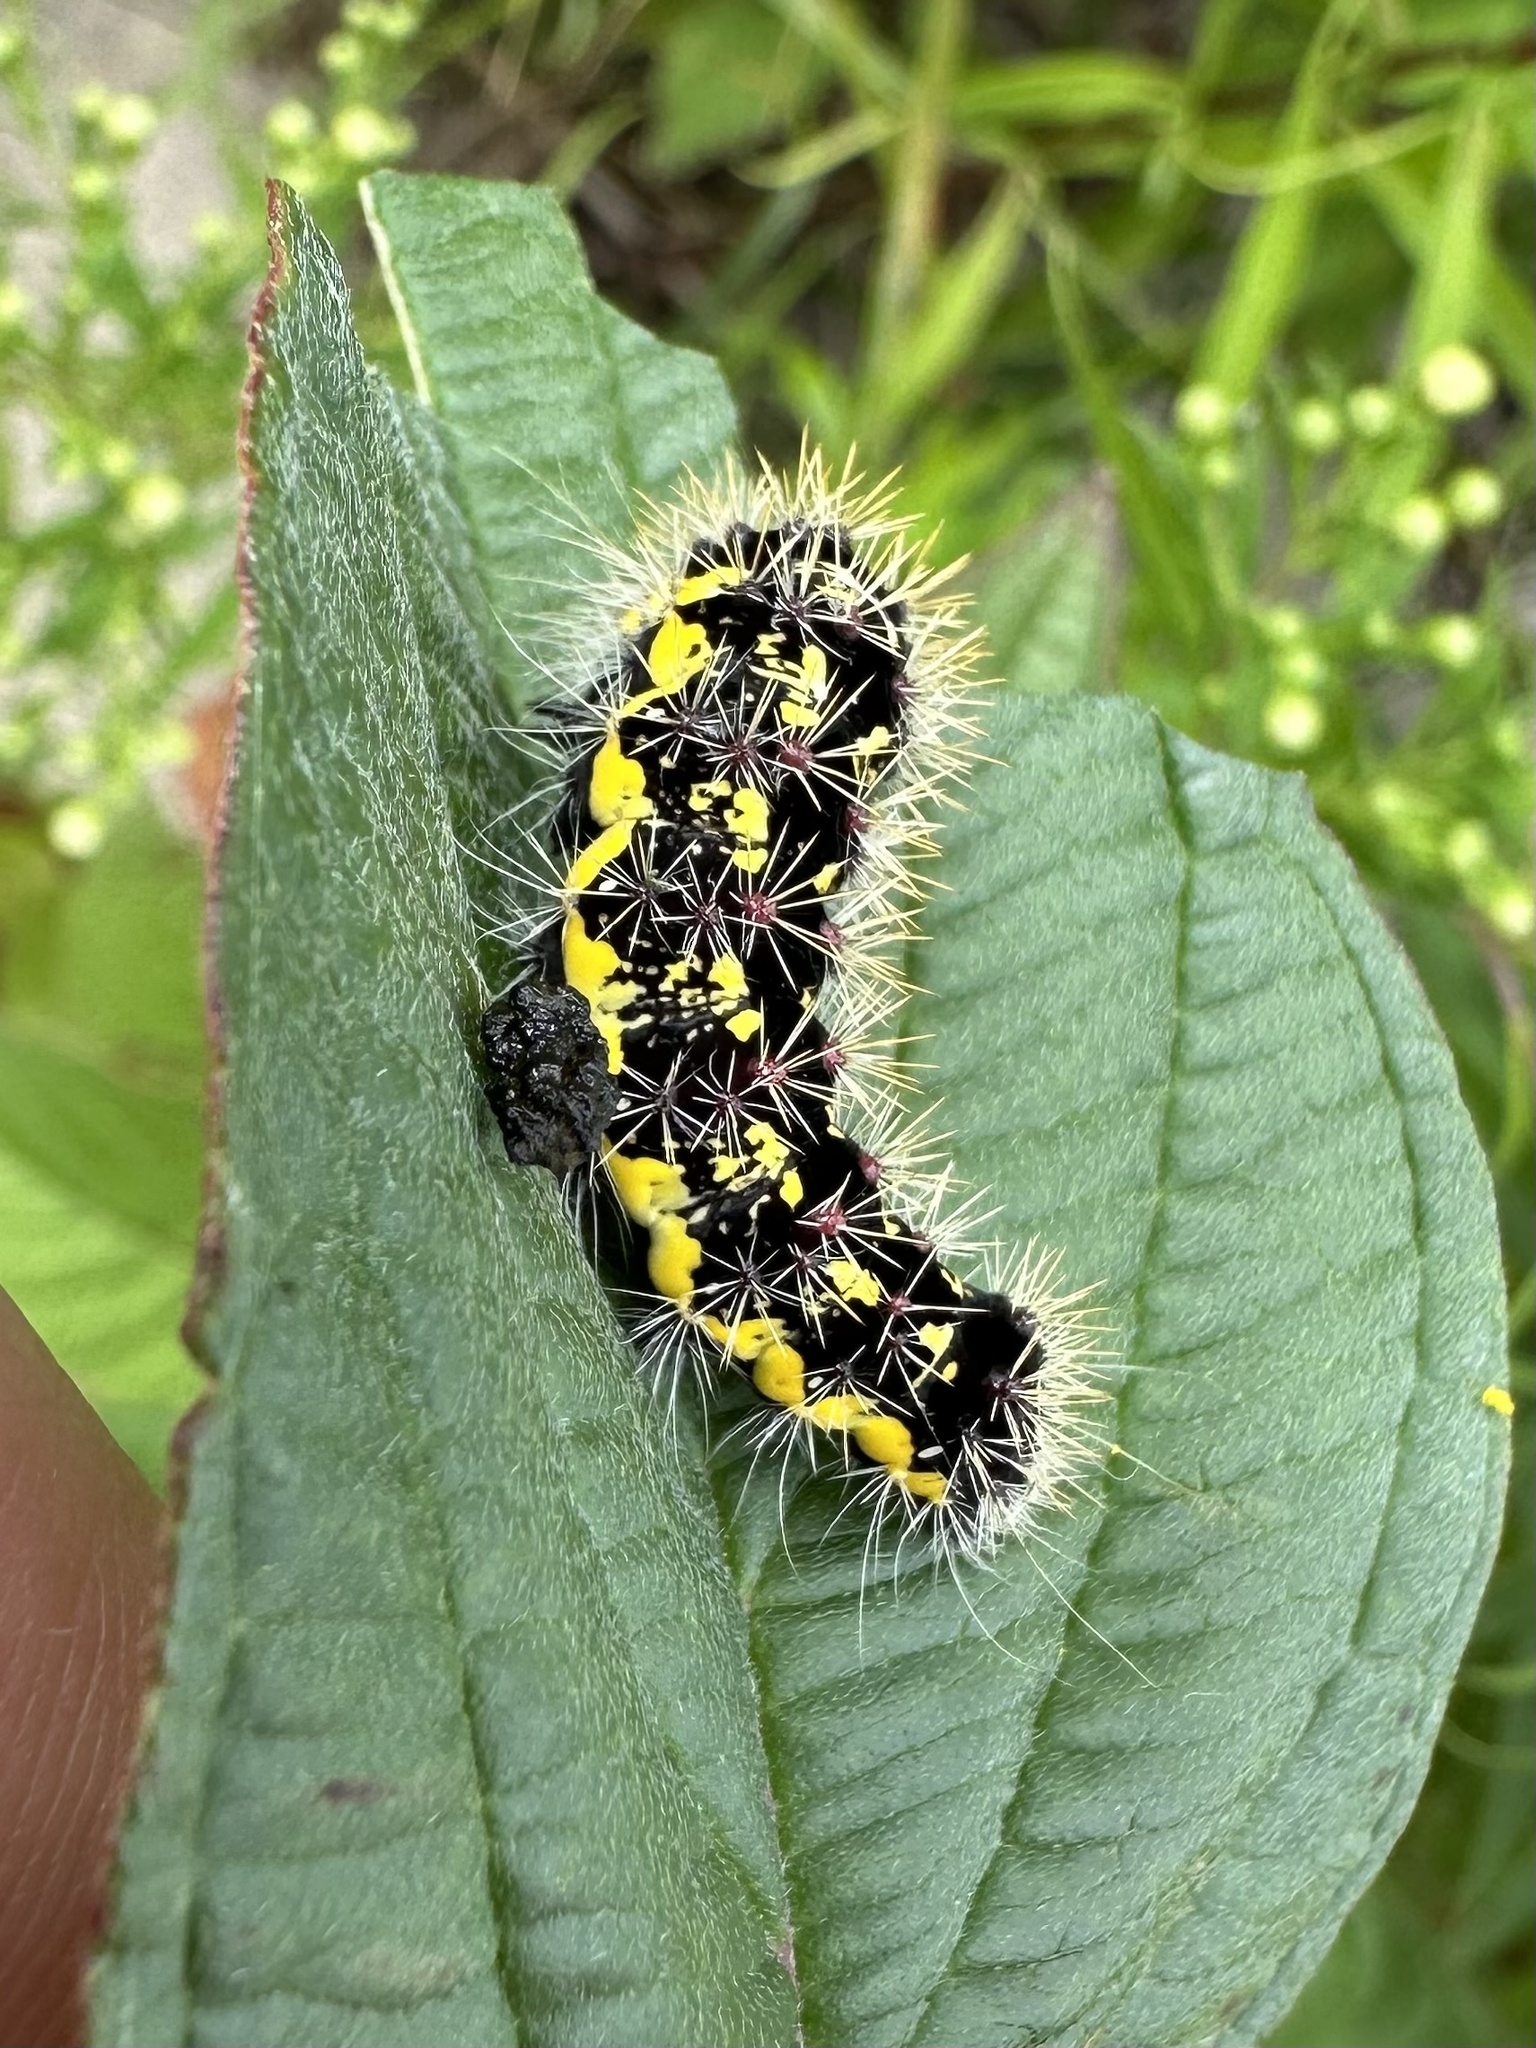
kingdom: Animalia
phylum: Arthropoda
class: Insecta
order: Lepidoptera
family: Noctuidae
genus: Acronicta
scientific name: Acronicta oblinita
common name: Smeared dagger
